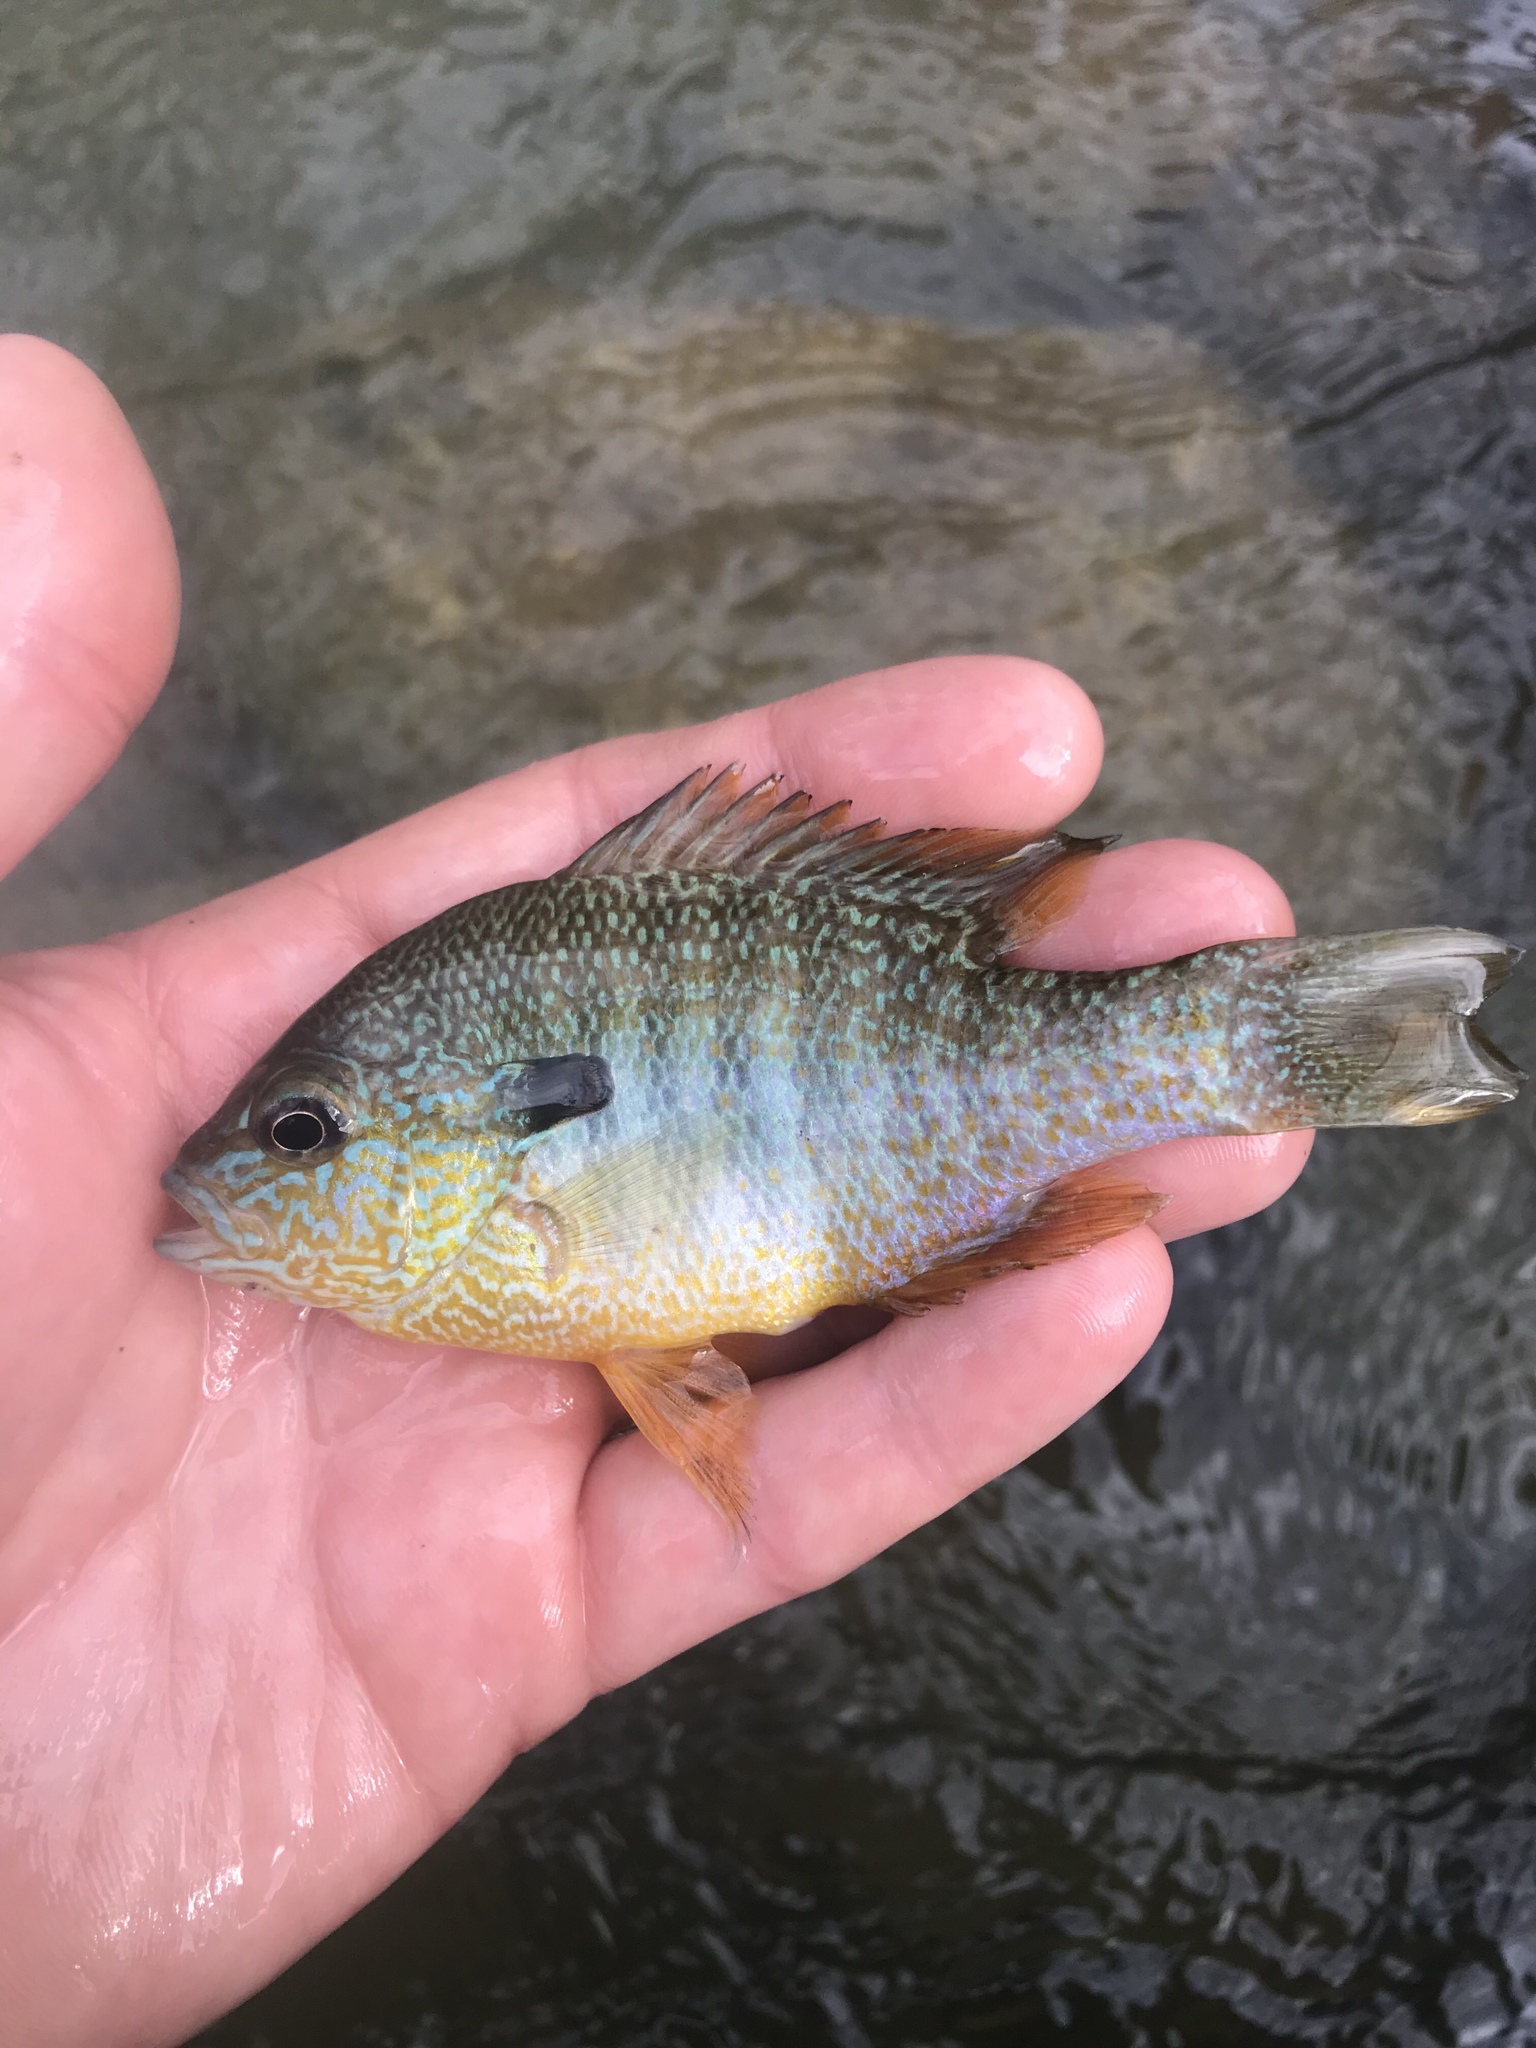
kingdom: Animalia
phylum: Chordata
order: Perciformes
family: Centrarchidae
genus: Lepomis
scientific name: Lepomis megalotis
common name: Longear sunfish
